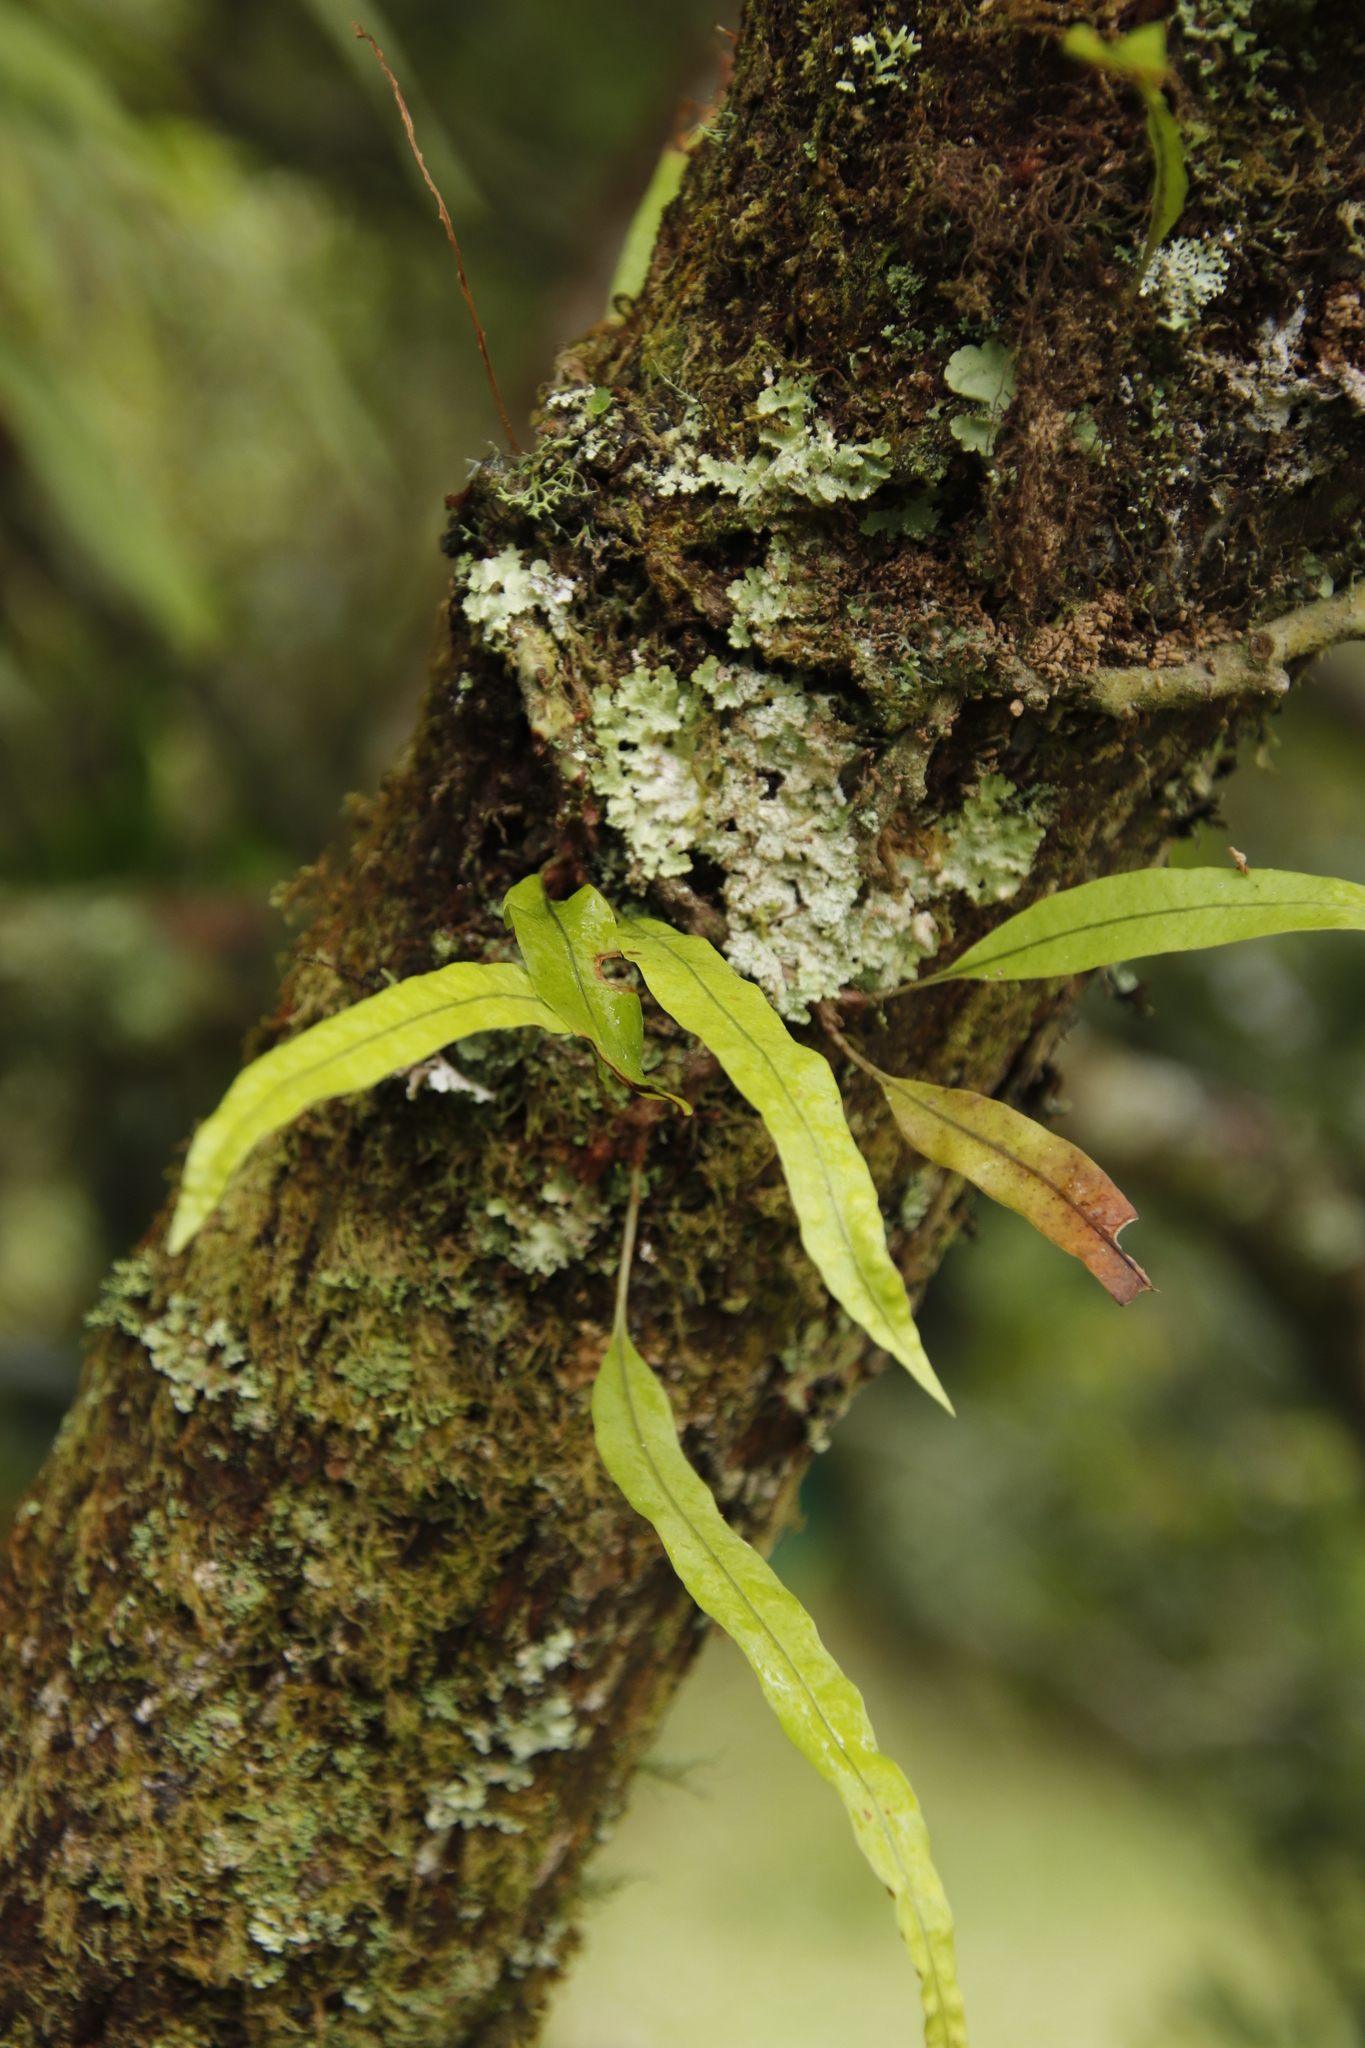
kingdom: Plantae
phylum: Tracheophyta
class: Polypodiopsida
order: Polypodiales
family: Polypodiaceae
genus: Lepisorus
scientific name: Lepisorus excavatus
